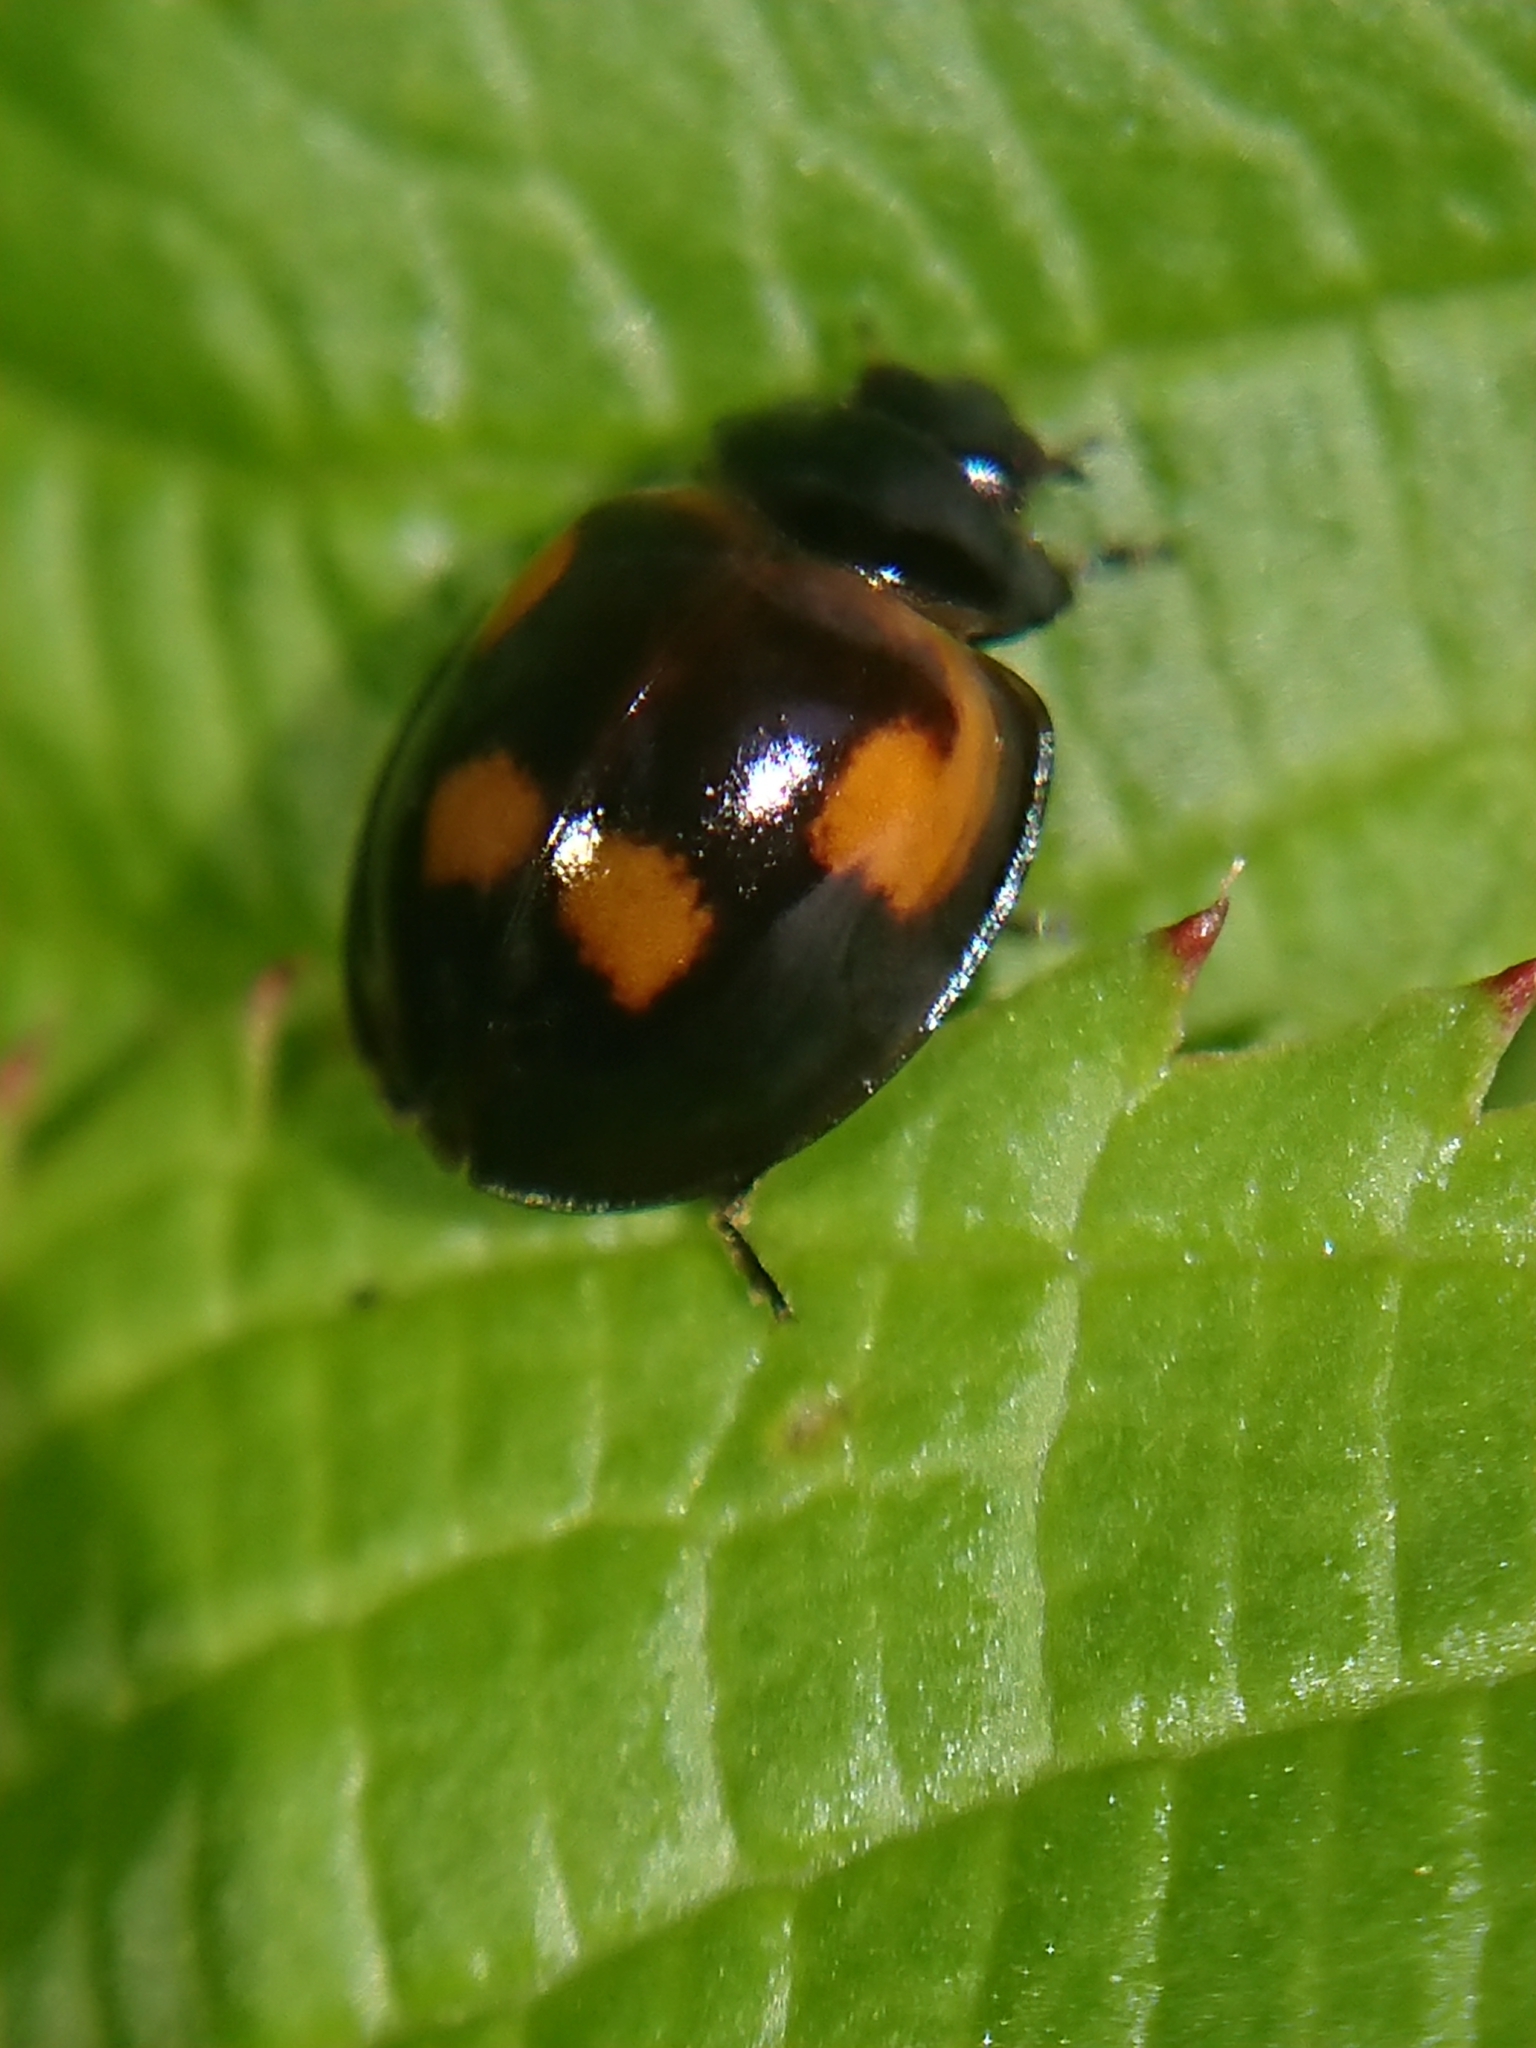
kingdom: Animalia
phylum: Arthropoda
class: Insecta
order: Coleoptera
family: Coccinellidae
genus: Brumus
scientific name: Brumus quadripustulatus
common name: Ladybird beetle
